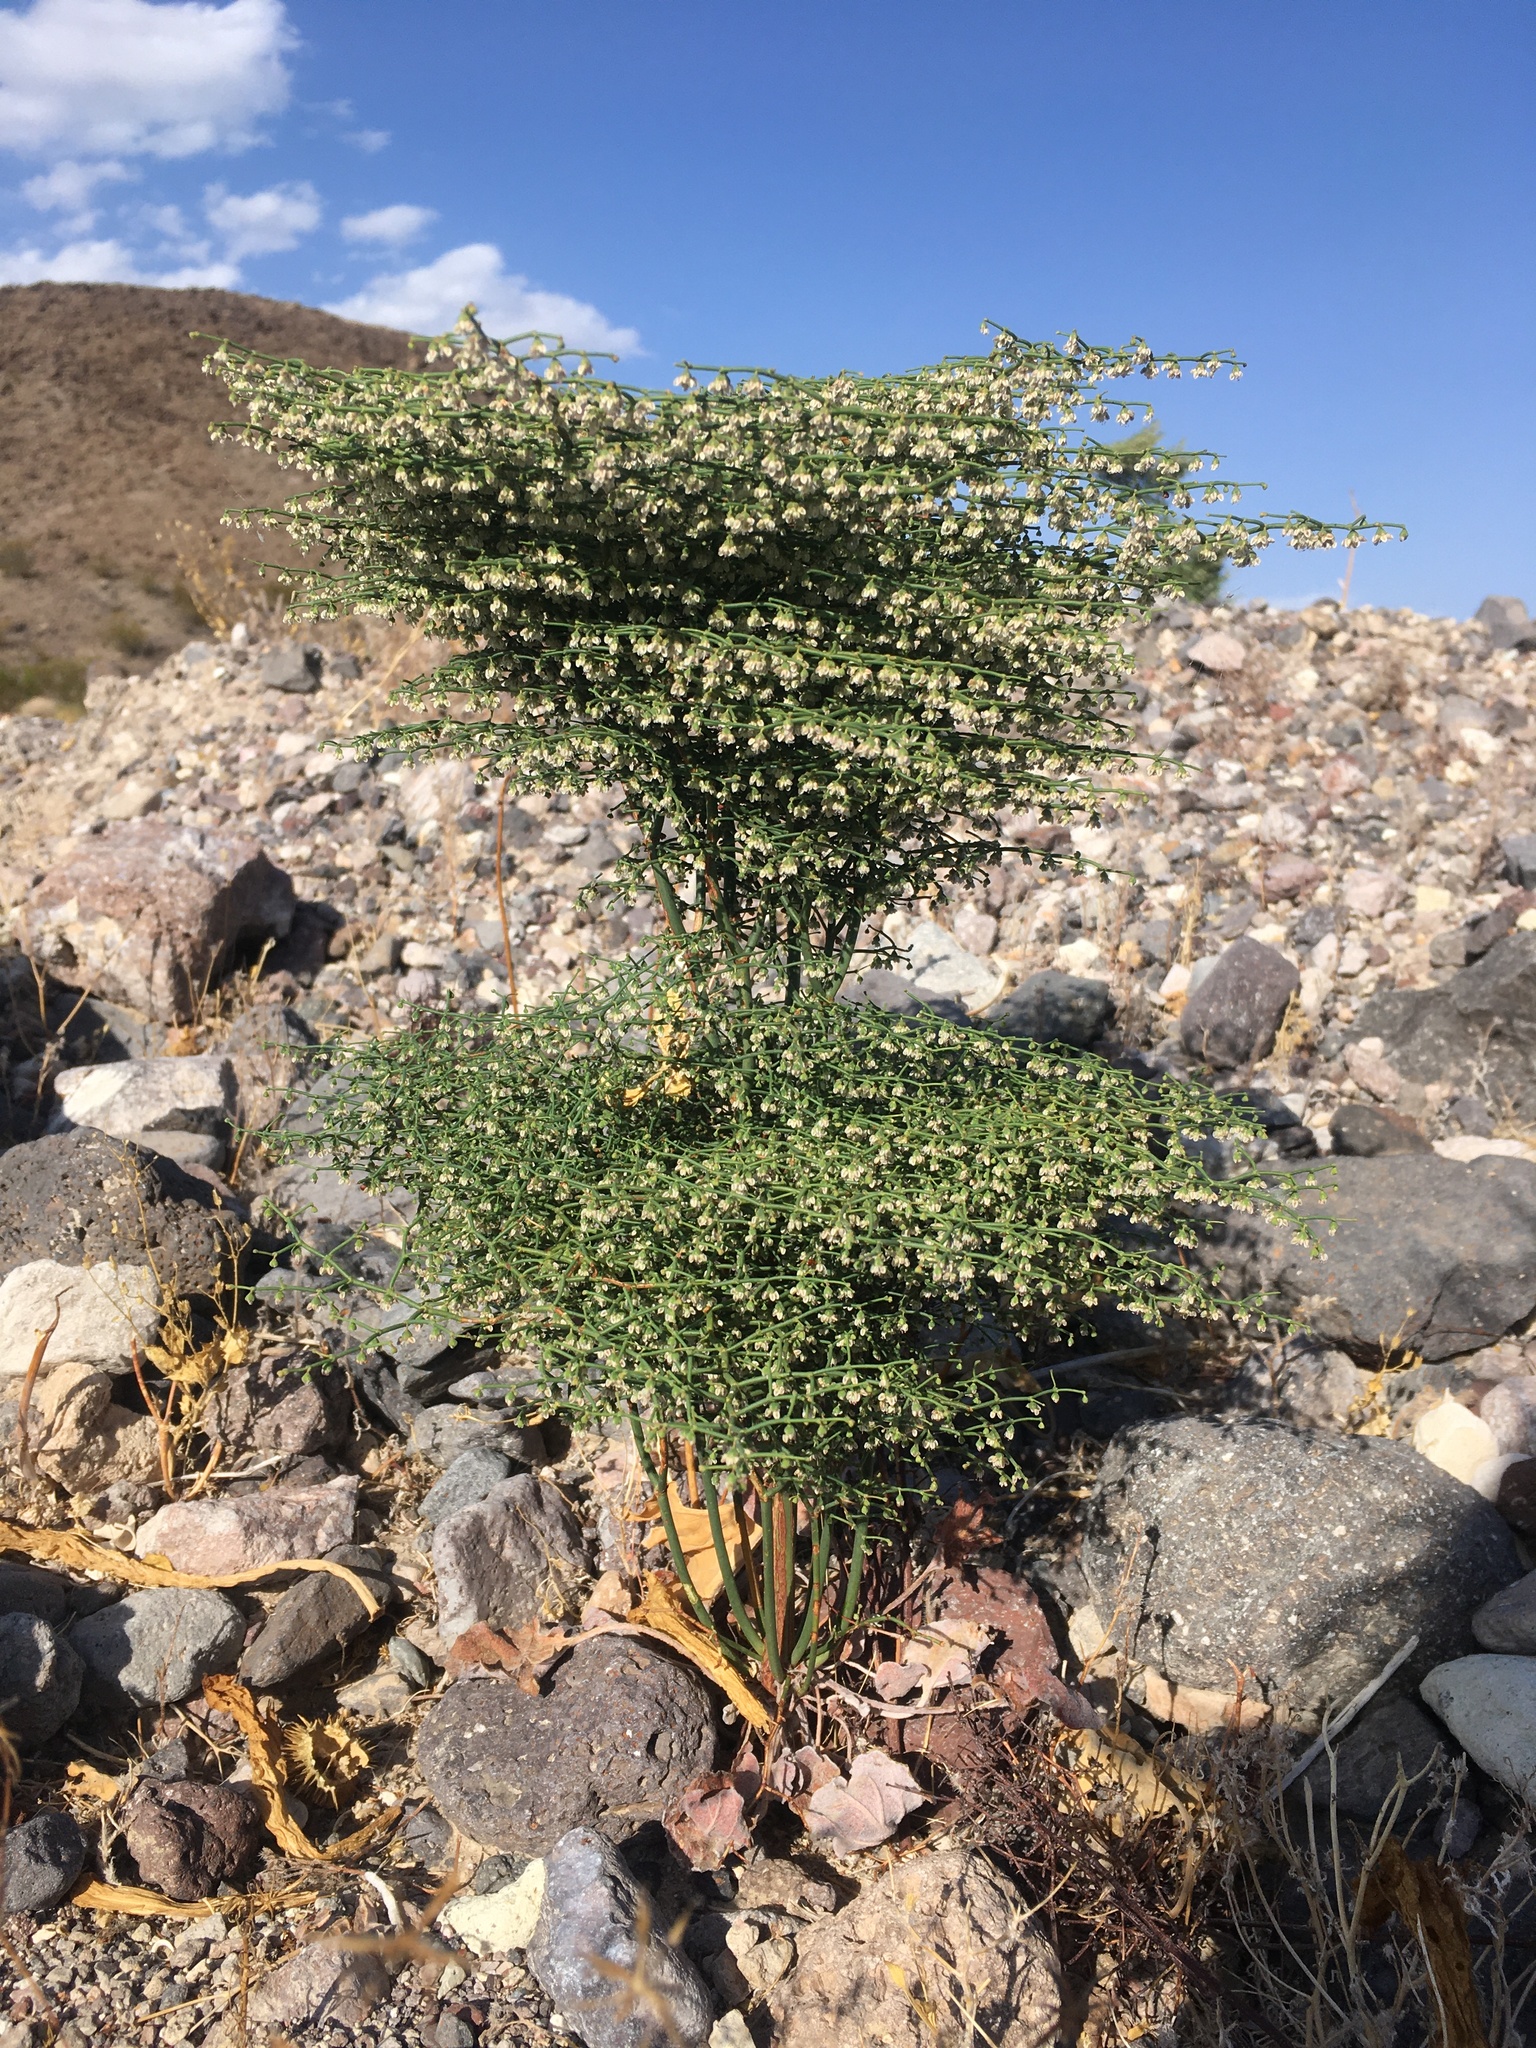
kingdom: Plantae
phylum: Tracheophyta
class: Magnoliopsida
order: Caryophyllales
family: Polygonaceae
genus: Eriogonum
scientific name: Eriogonum rixfordii
